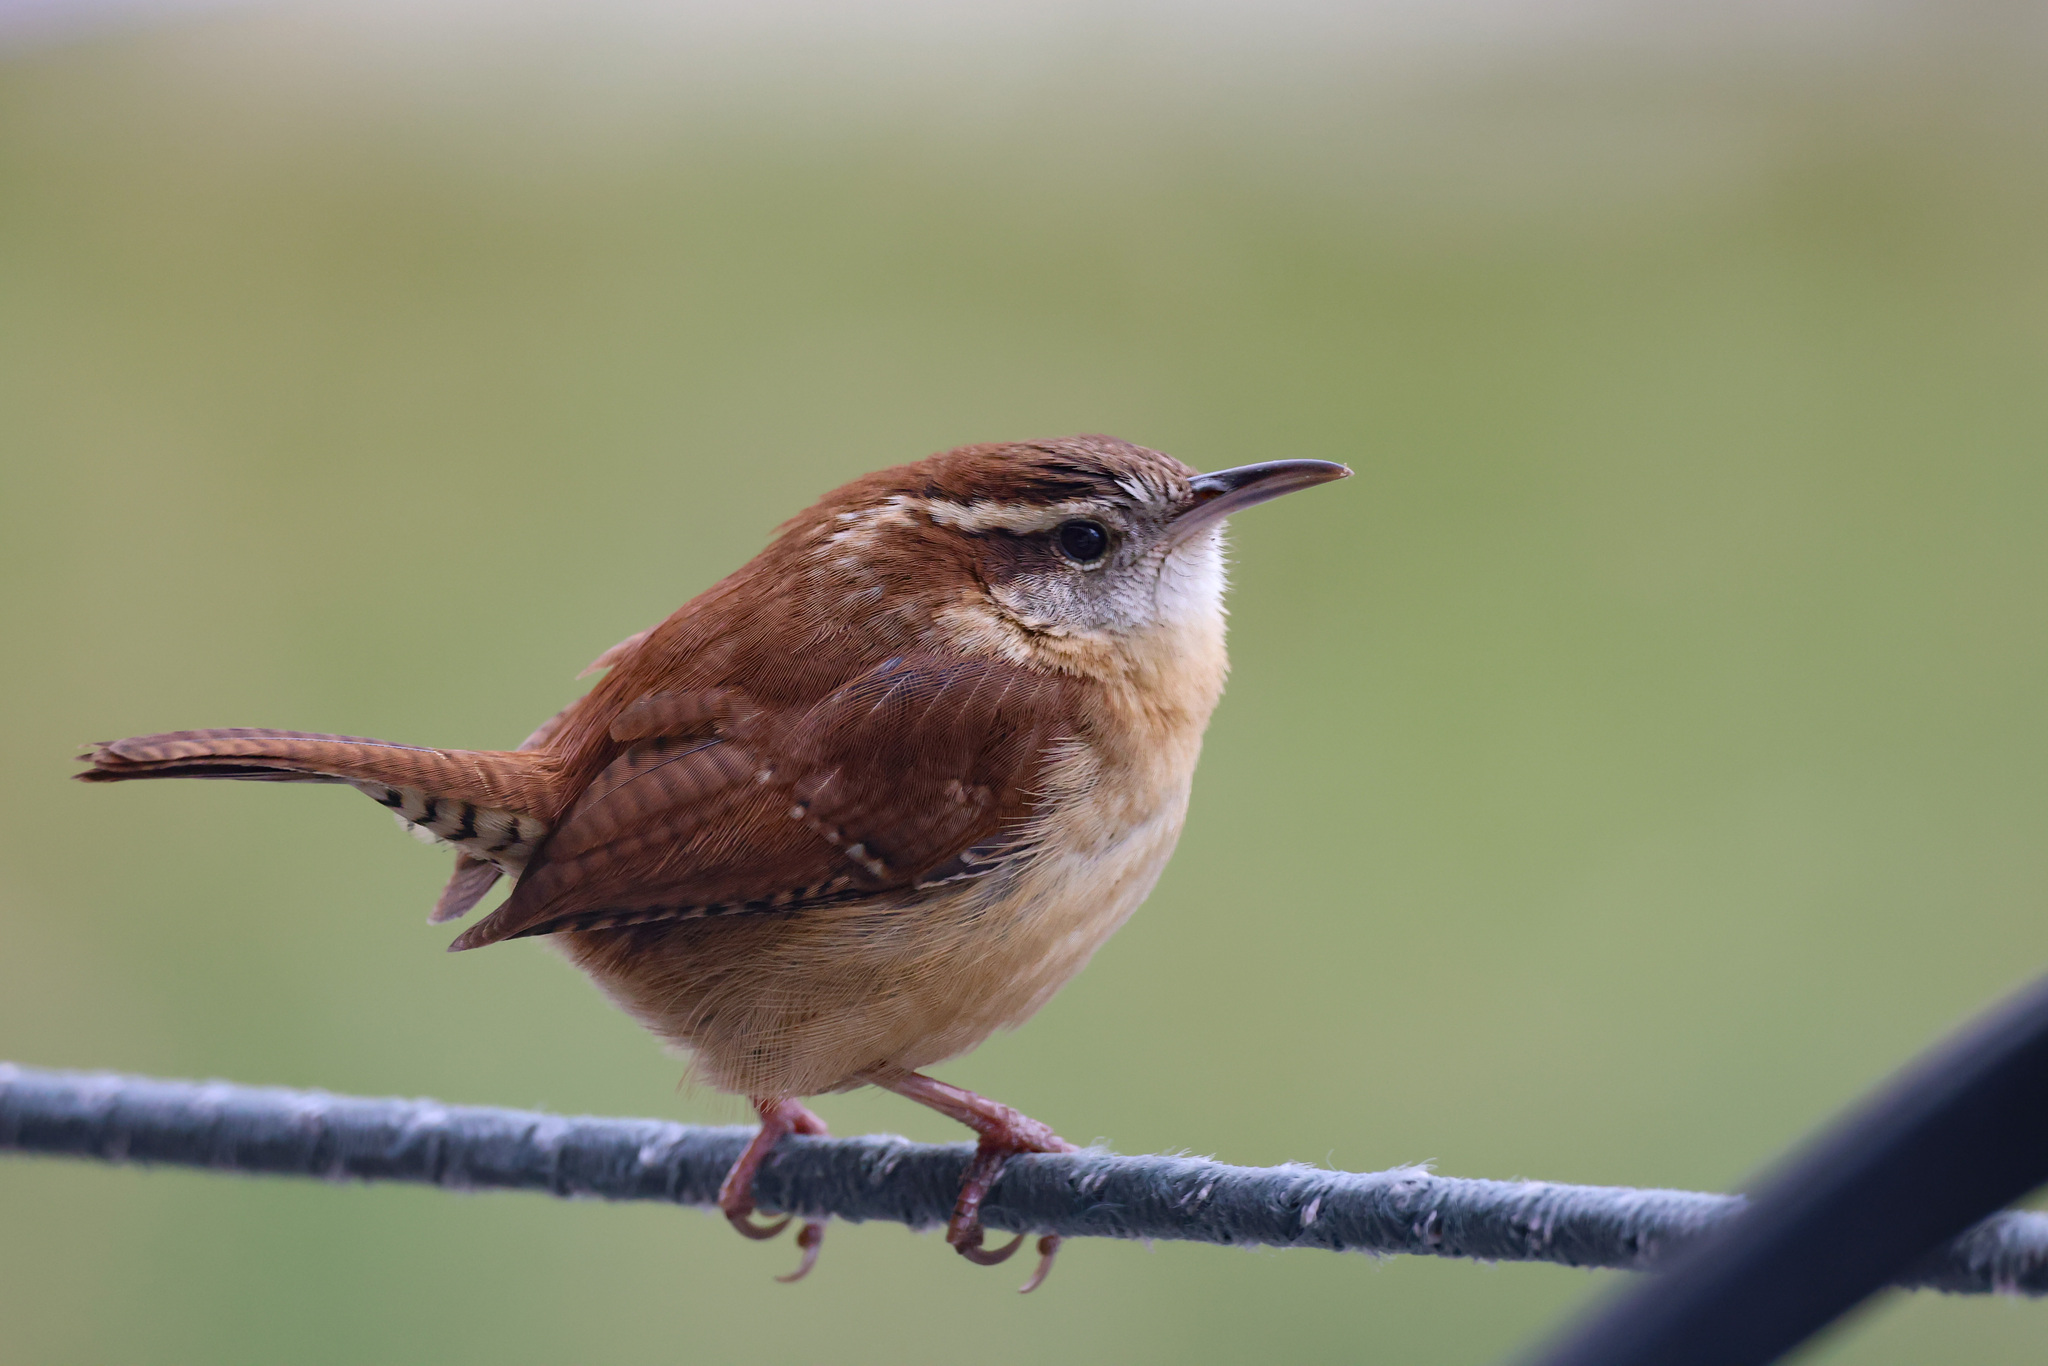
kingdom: Animalia
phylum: Chordata
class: Aves
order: Passeriformes
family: Troglodytidae
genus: Thryothorus
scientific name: Thryothorus ludovicianus
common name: Carolina wren
